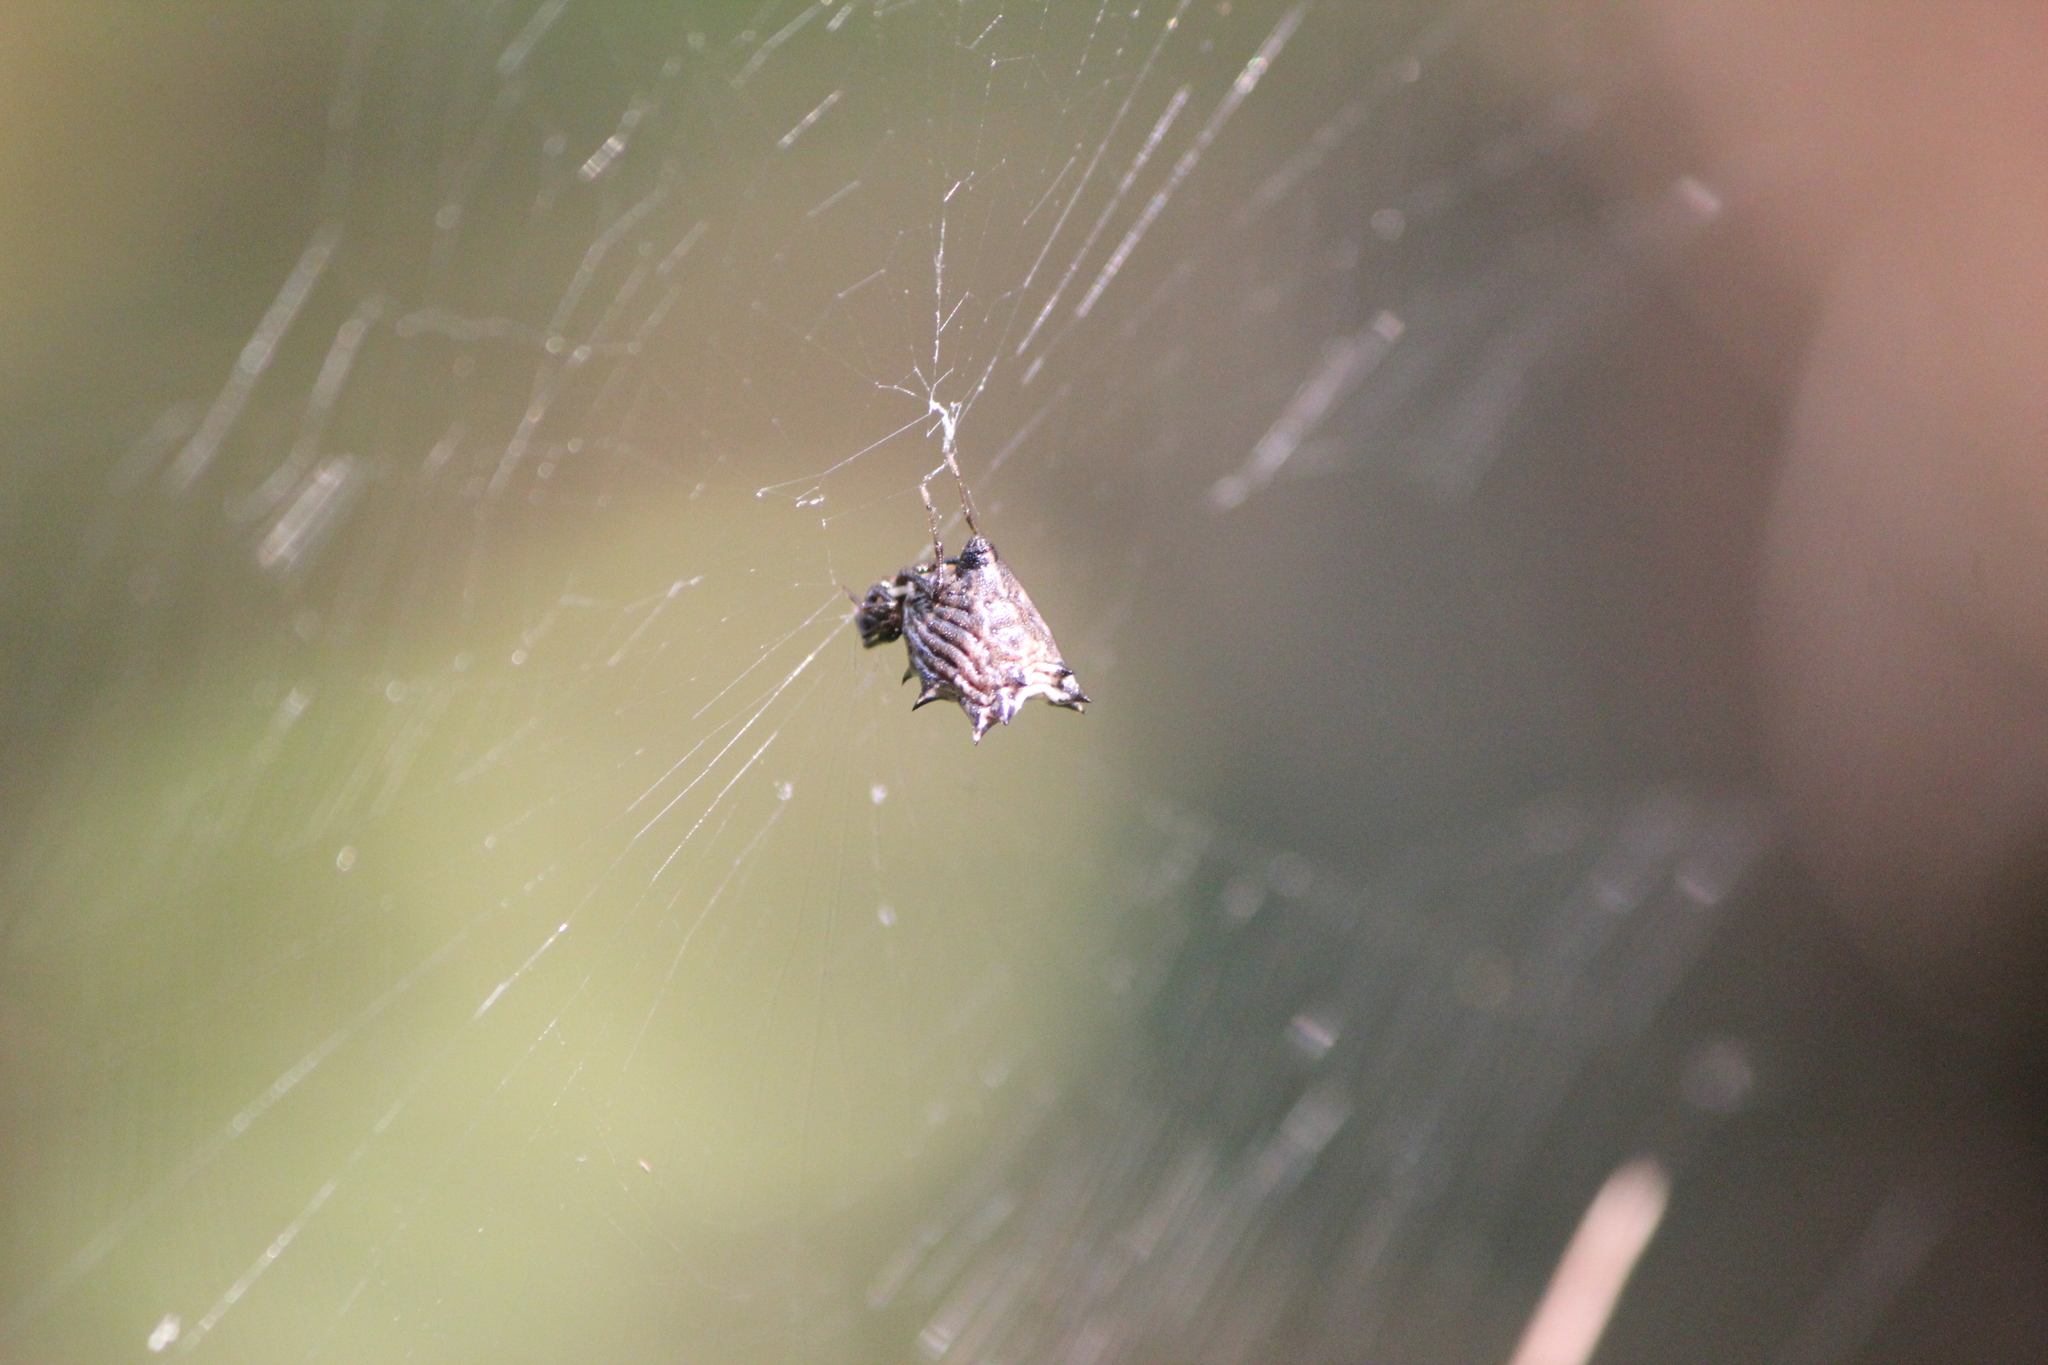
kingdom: Animalia
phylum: Arthropoda
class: Arachnida
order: Araneae
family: Araneidae
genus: Micrathena
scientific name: Micrathena gracilis
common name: Orb weavers
